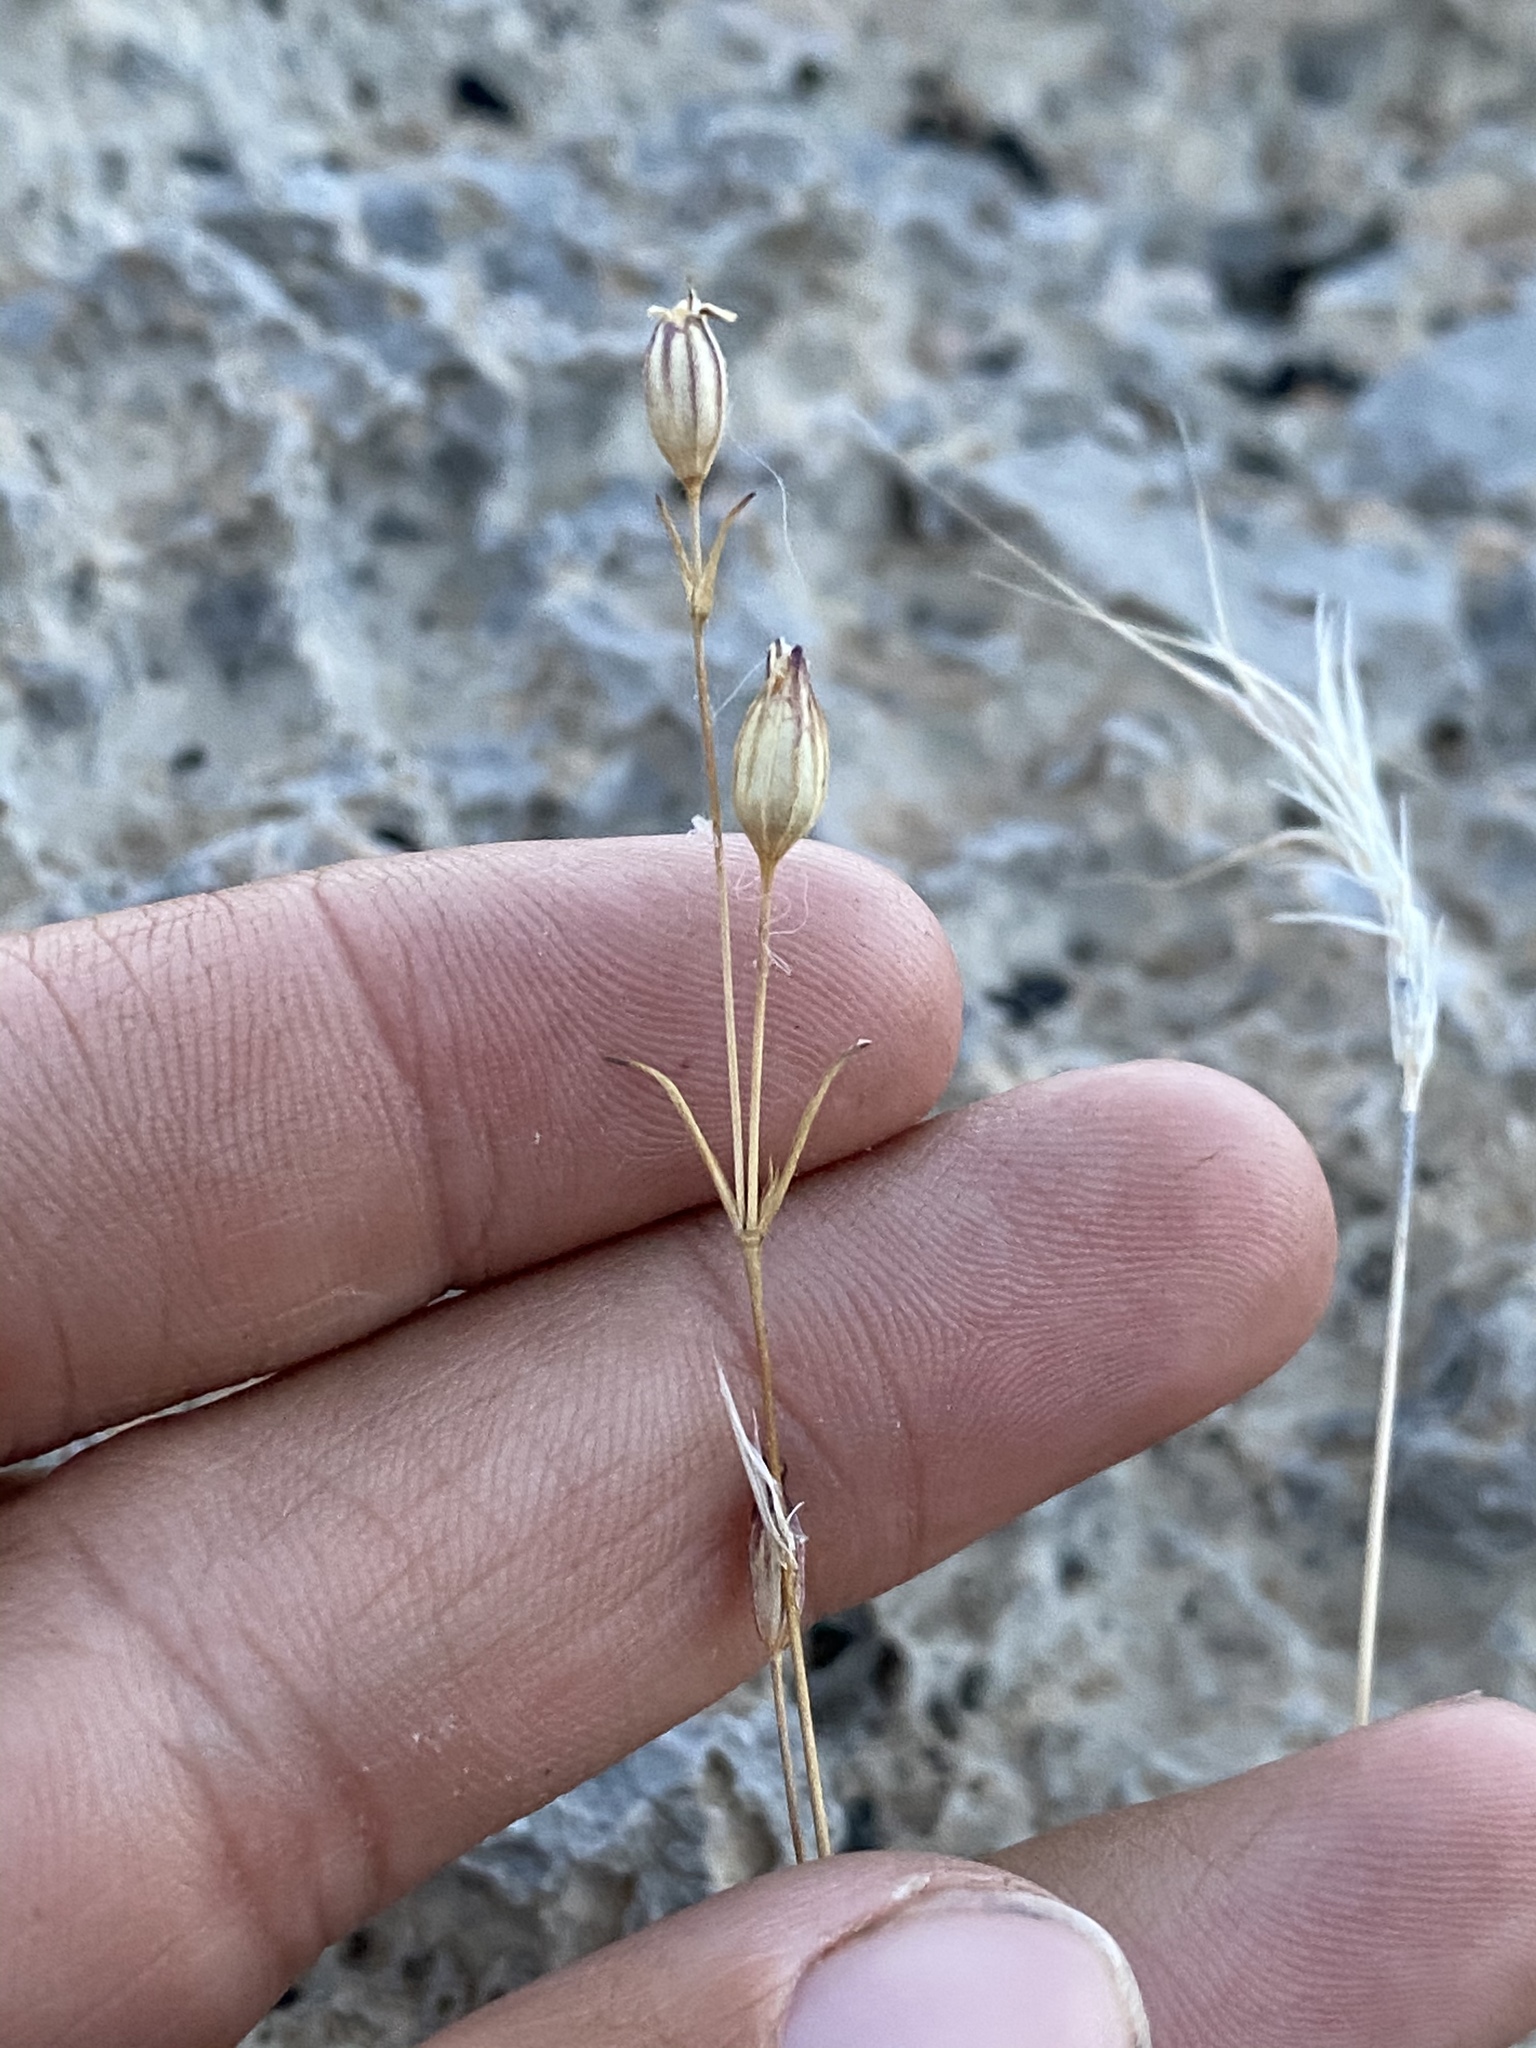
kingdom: Plantae
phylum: Tracheophyta
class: Magnoliopsida
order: Caryophyllales
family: Caryophyllaceae
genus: Silene
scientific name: Silene antirrhina
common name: Sleepy catchfly
